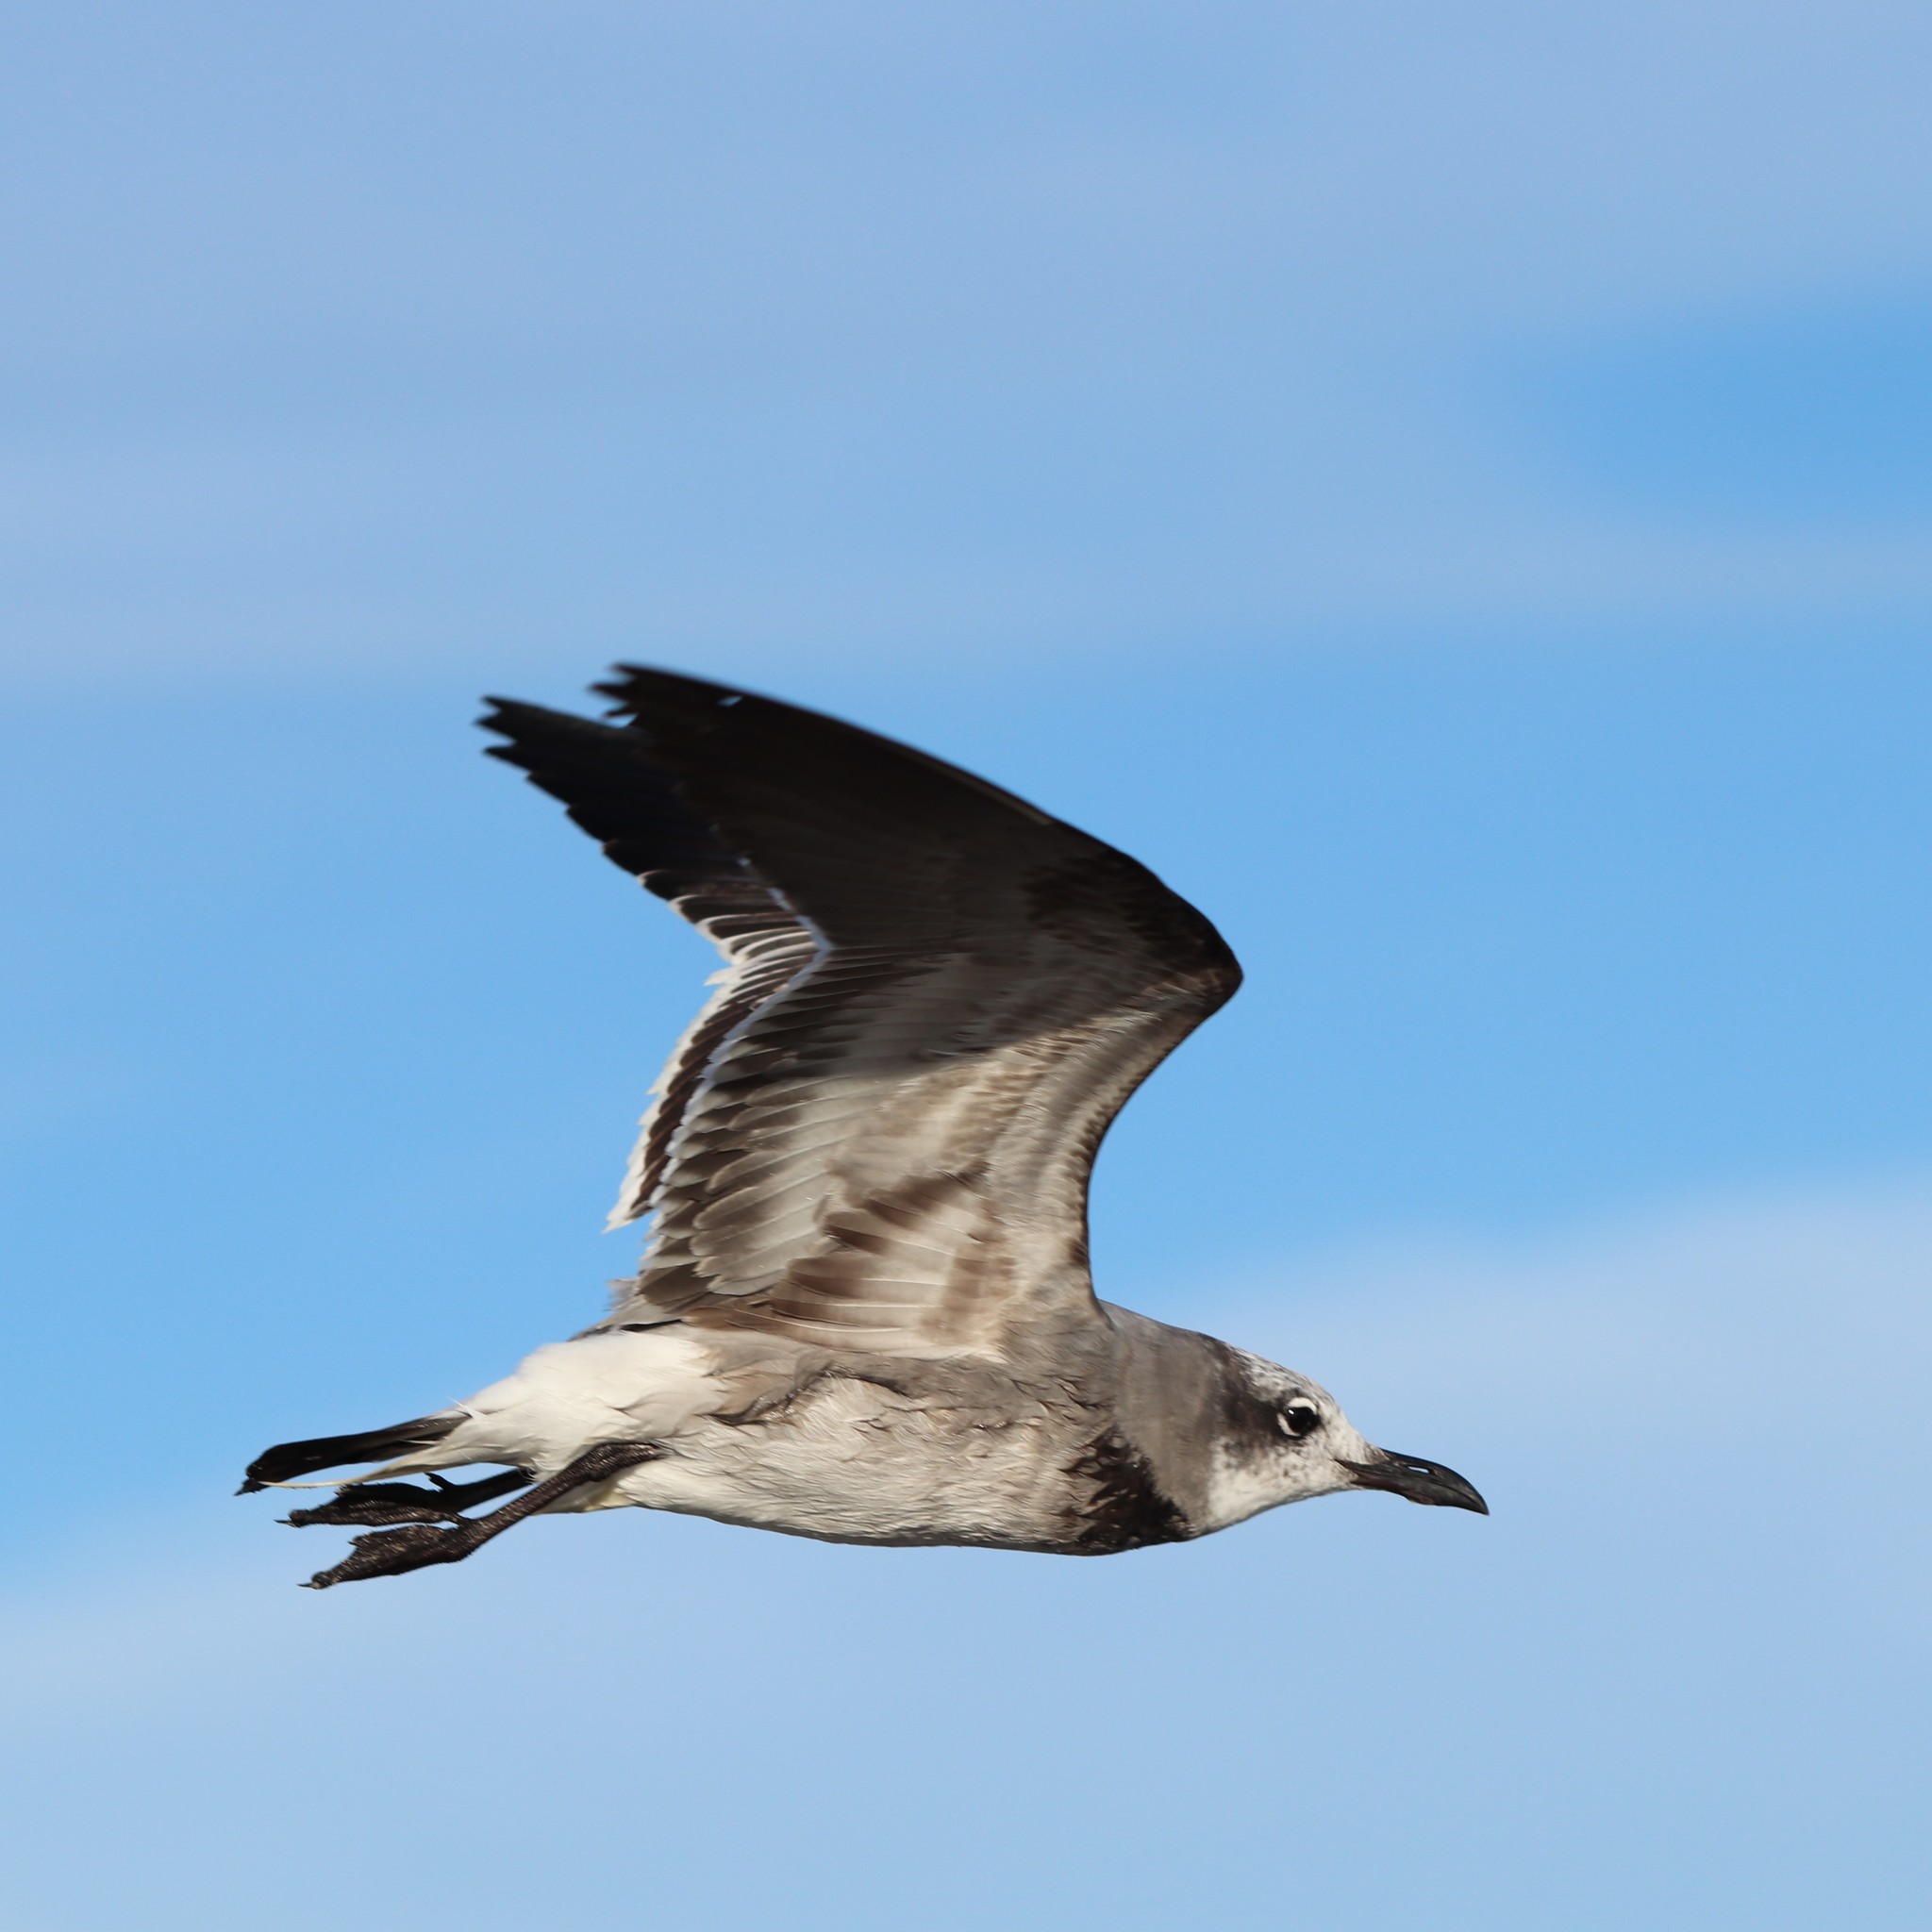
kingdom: Animalia
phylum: Chordata
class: Aves
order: Charadriiformes
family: Laridae
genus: Leucophaeus
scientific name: Leucophaeus atricilla
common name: Laughing gull
